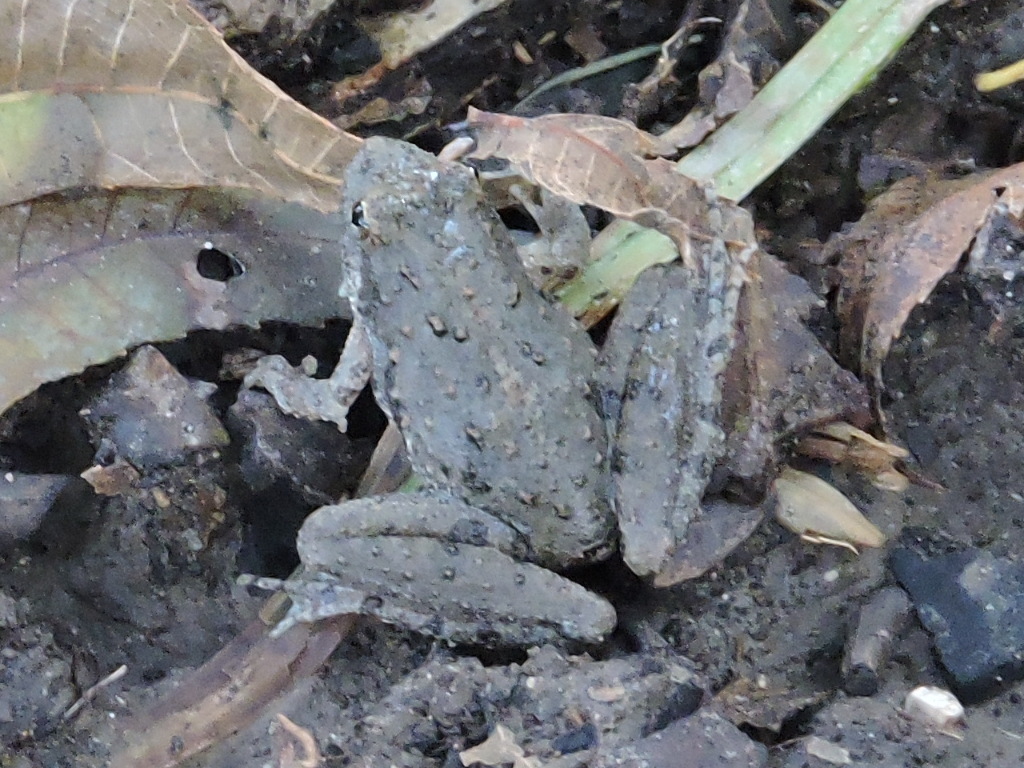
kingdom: Animalia
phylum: Chordata
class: Amphibia
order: Anura
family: Hylidae
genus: Acris
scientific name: Acris blanchardi
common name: Blanchard's cricket frog
